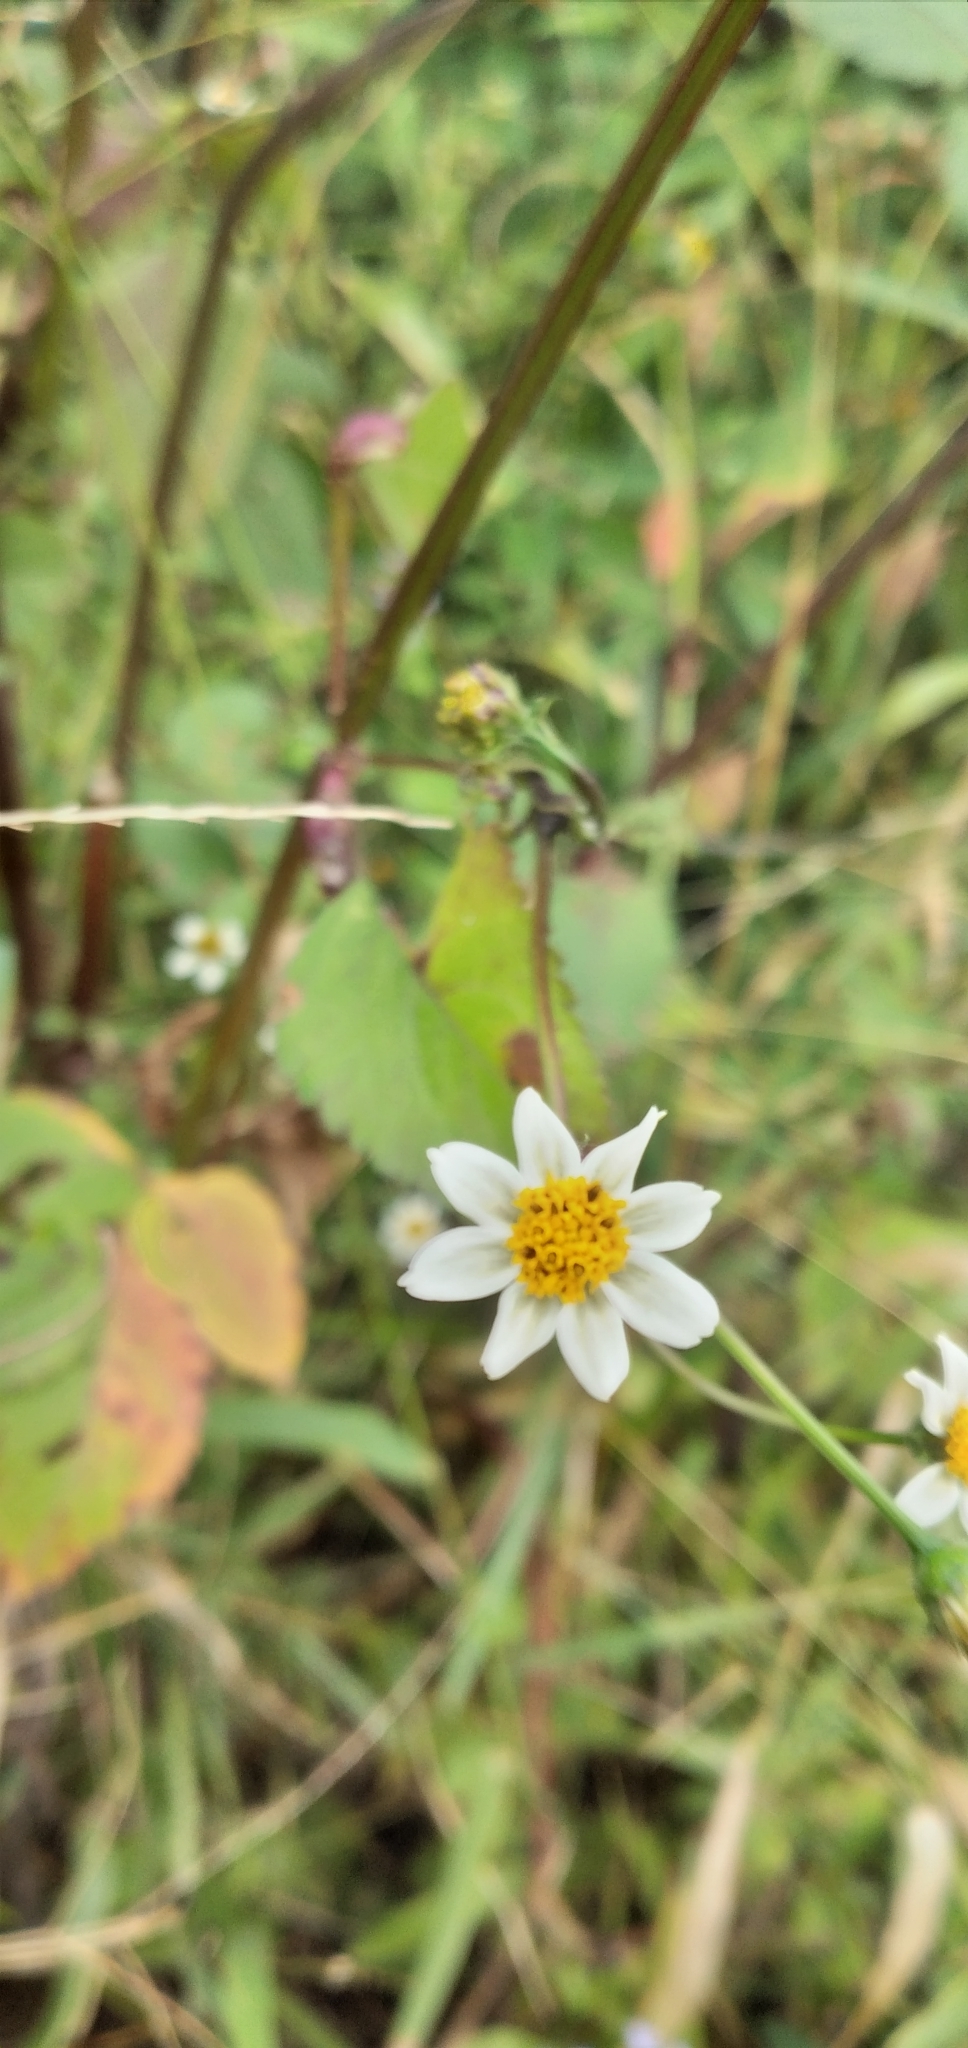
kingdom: Plantae
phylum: Tracheophyta
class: Magnoliopsida
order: Asterales
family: Asteraceae
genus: Bidens
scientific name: Bidens pilosa
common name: Black-jack
